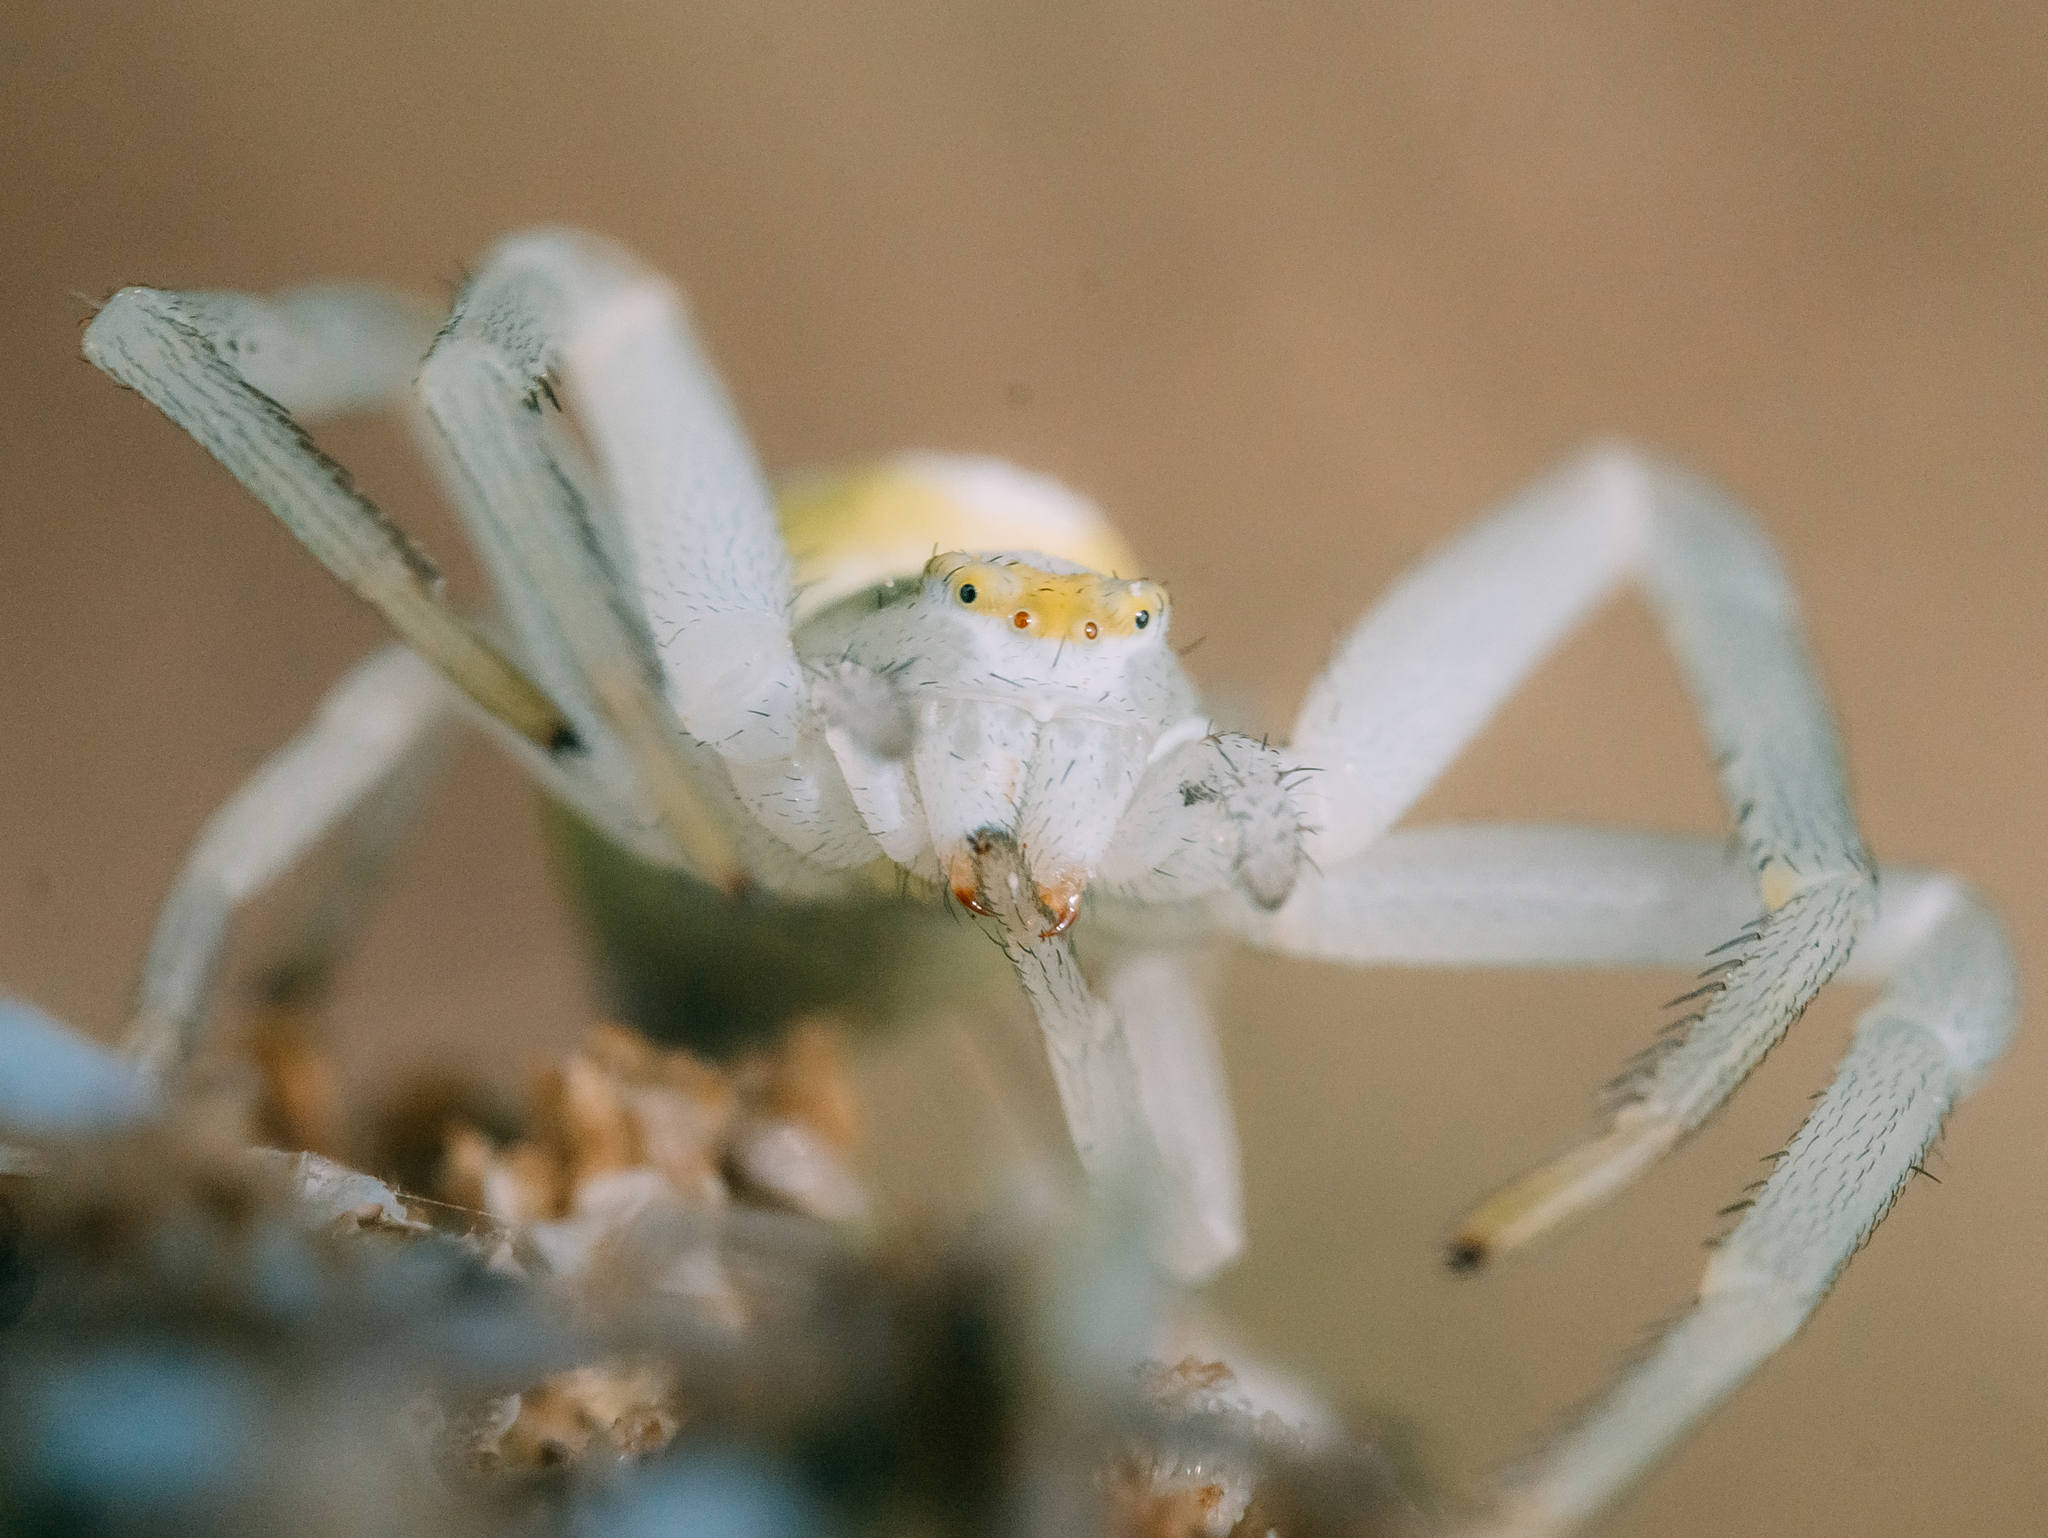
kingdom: Animalia
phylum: Arthropoda
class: Arachnida
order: Araneae
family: Thomisidae
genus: Misumena
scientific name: Misumena vatia
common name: Goldenrod crab spider
